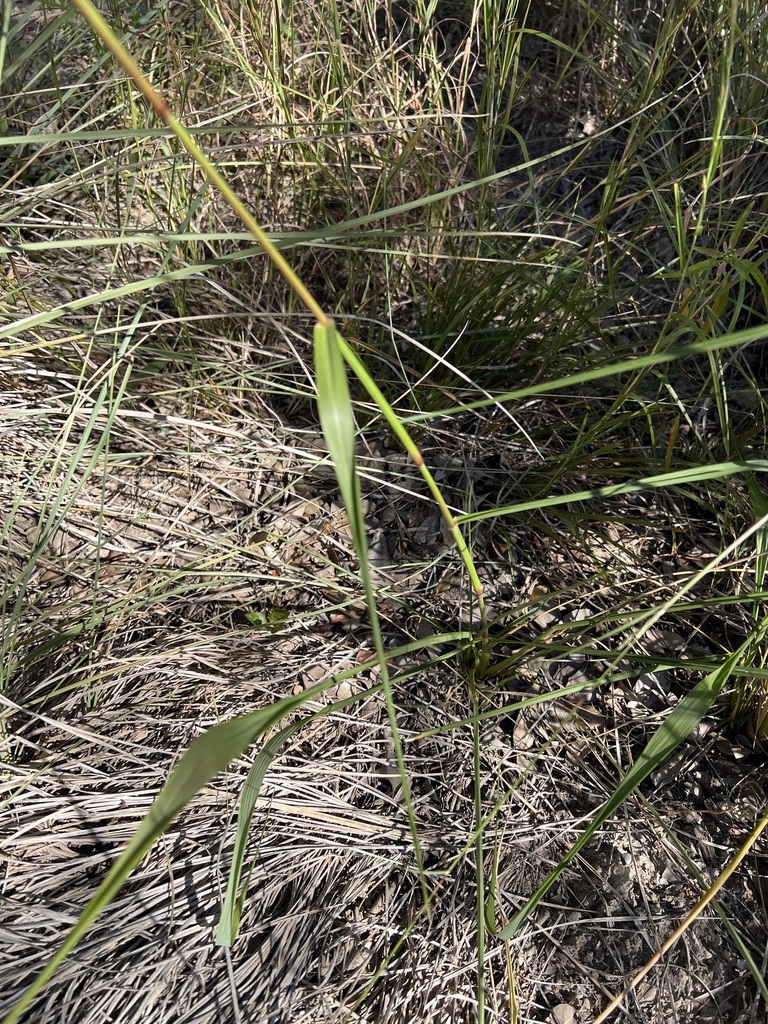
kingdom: Plantae
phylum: Tracheophyta
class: Liliopsida
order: Poales
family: Poaceae
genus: Tridens
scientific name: Tridens flavus
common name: Purpletop
